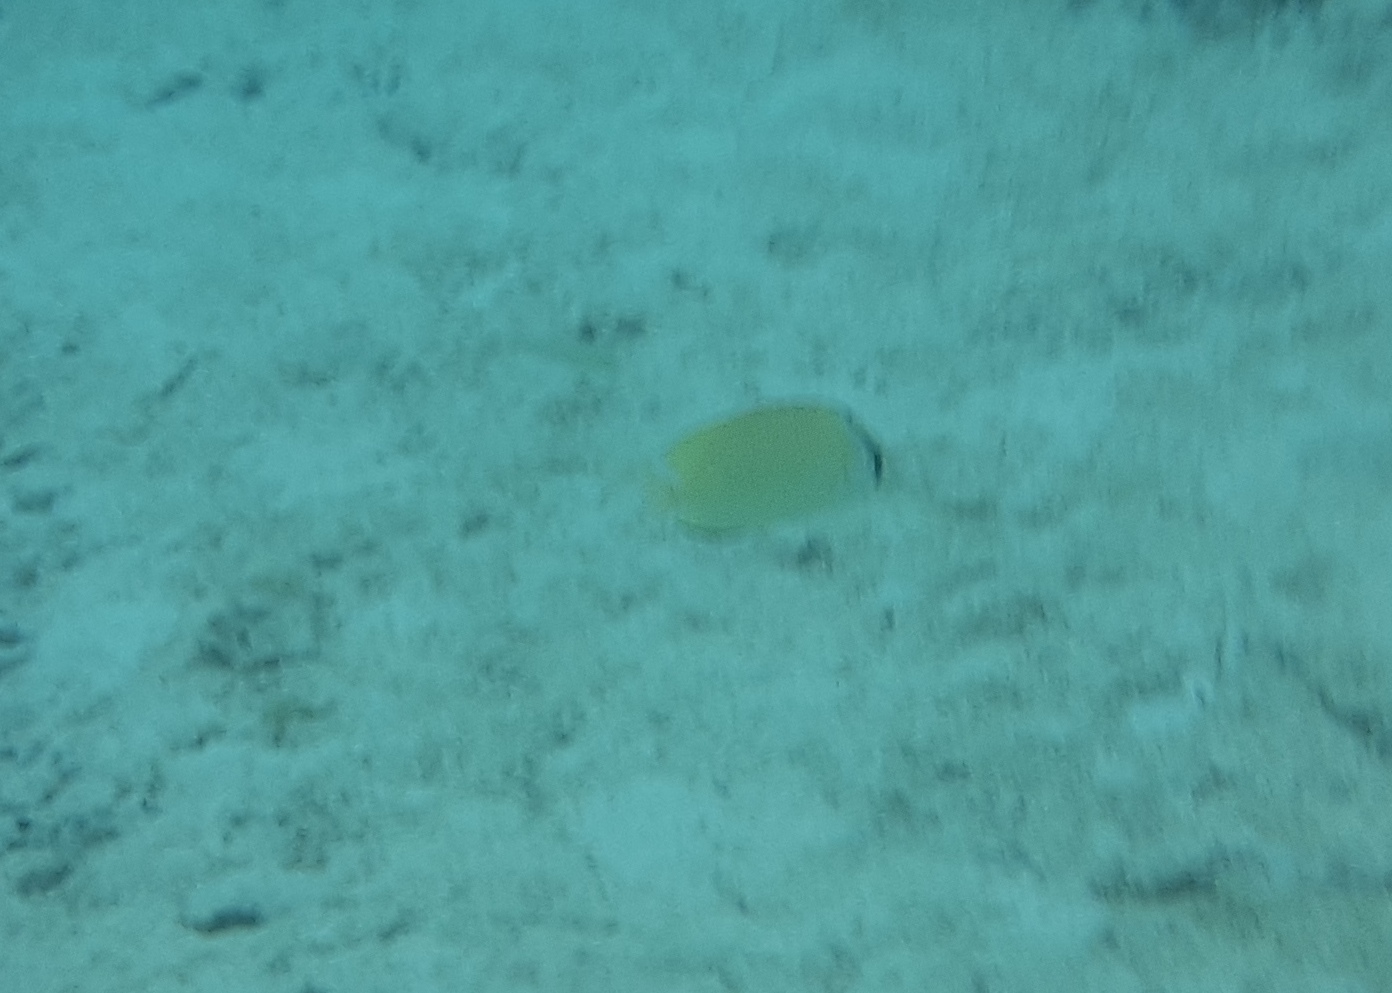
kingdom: Animalia
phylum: Chordata
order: Perciformes
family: Chaetodontidae
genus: Chaetodon
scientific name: Chaetodon citrinellus
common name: Speckled butterflyfish
